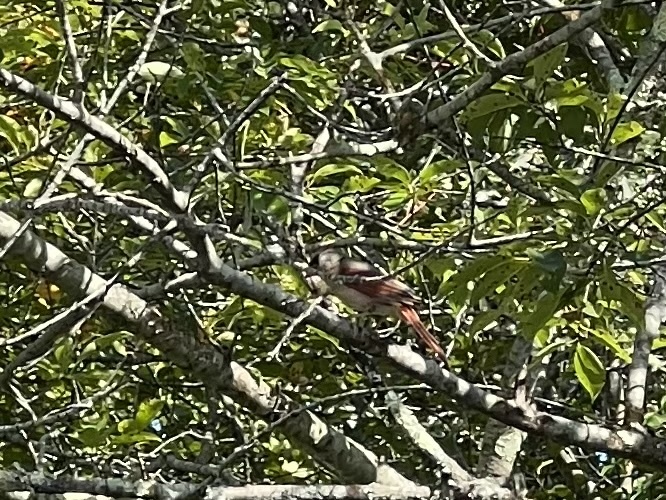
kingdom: Animalia
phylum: Chordata
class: Aves
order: Passeriformes
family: Cardinalidae
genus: Cardinalis
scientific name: Cardinalis cardinalis
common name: Northern cardinal
